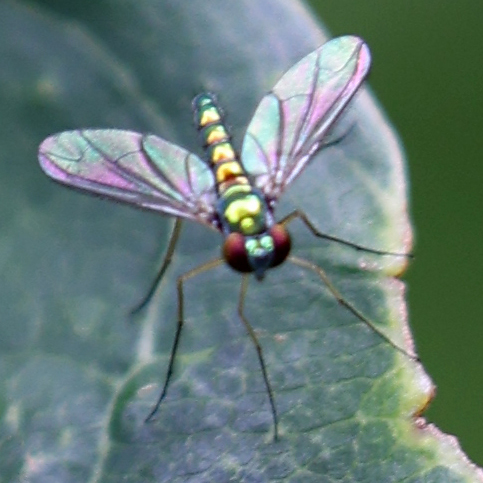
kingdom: Animalia
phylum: Arthropoda
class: Insecta
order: Diptera
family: Dolichopodidae
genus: Amblypsilopus
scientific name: Amblypsilopus scintillans
